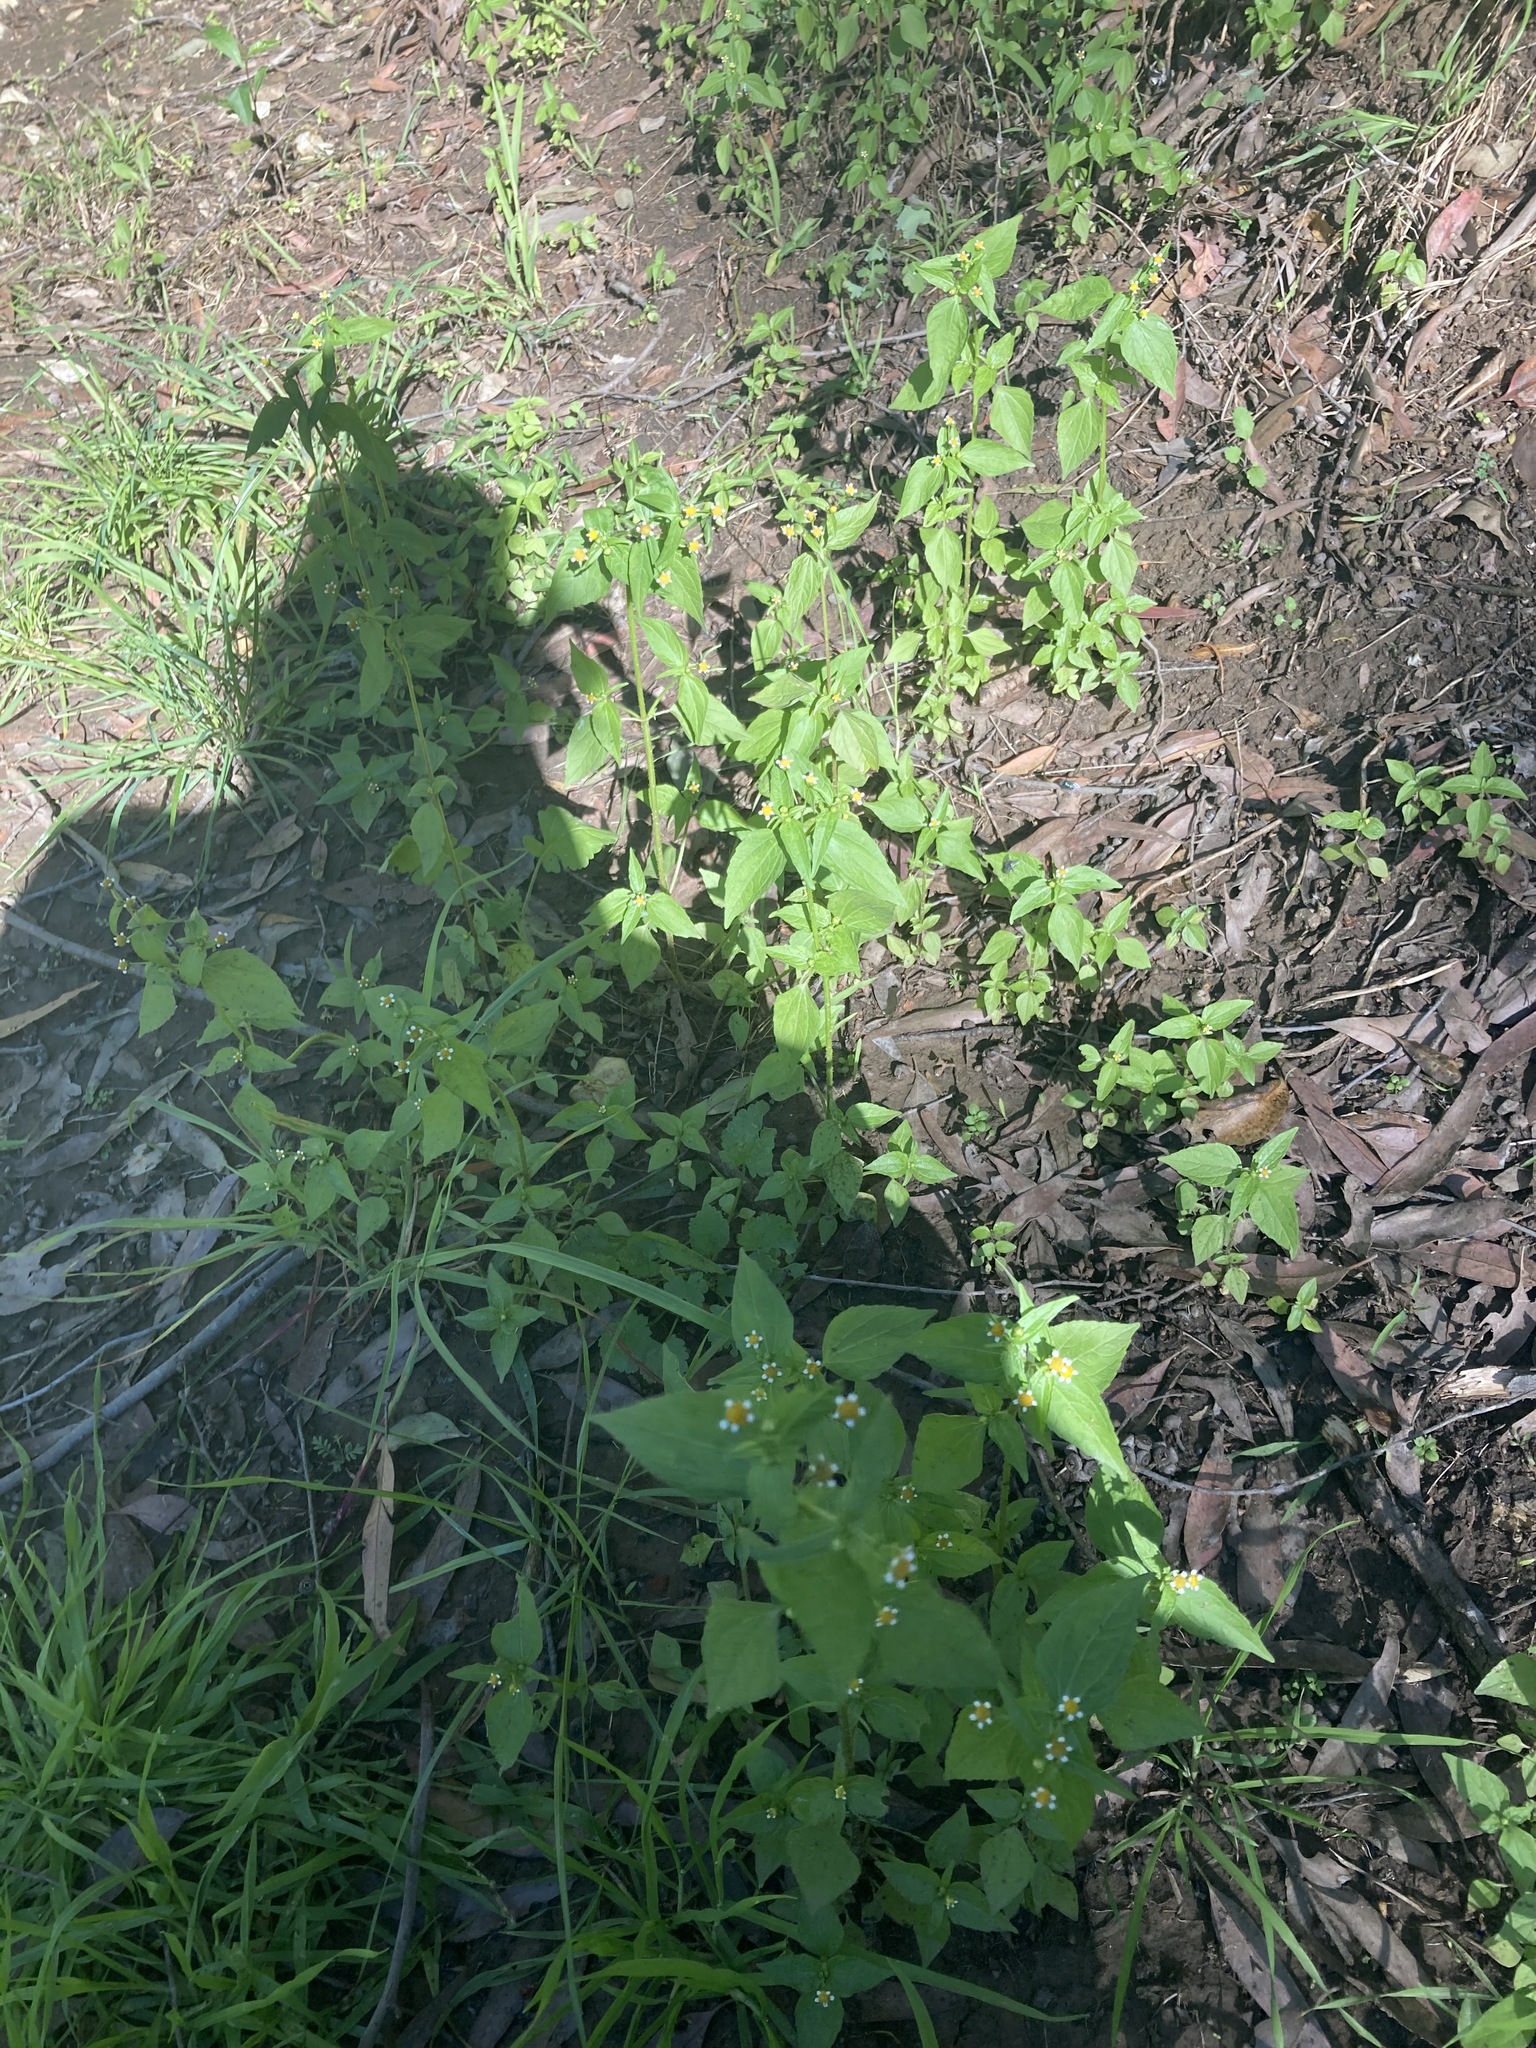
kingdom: Plantae
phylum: Tracheophyta
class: Magnoliopsida
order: Asterales
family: Asteraceae
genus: Galinsoga
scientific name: Galinsoga parviflora
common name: Gallant soldier
